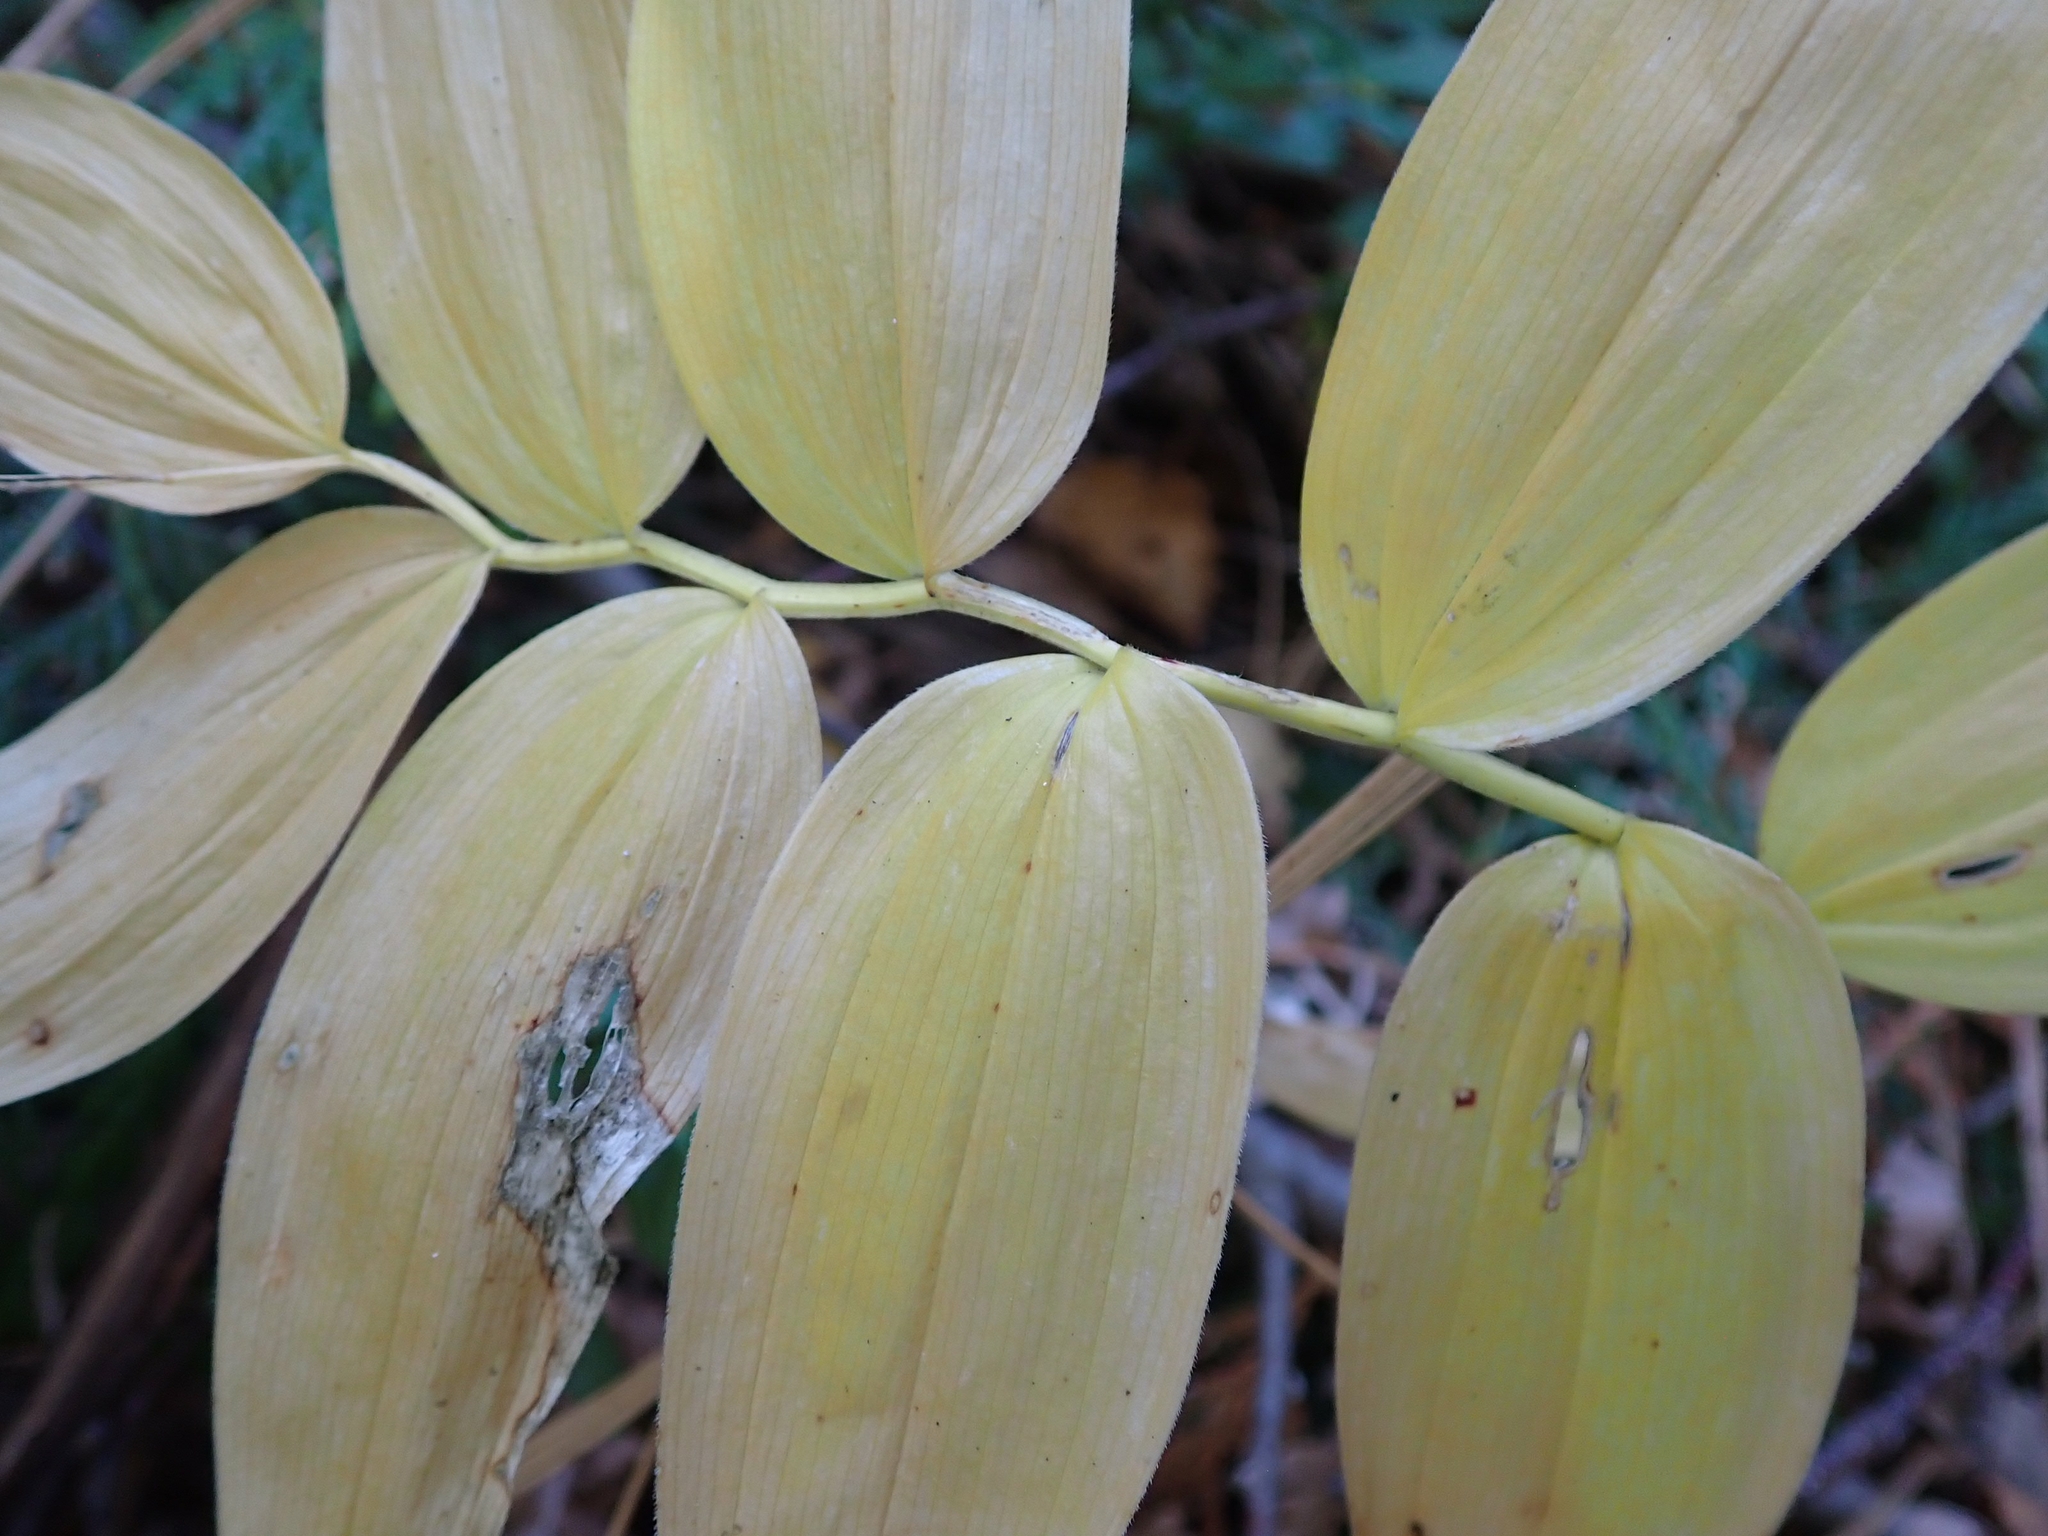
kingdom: Plantae
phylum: Tracheophyta
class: Liliopsida
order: Asparagales
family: Asparagaceae
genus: Maianthemum
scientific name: Maianthemum stellatum
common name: Little false solomon's seal
